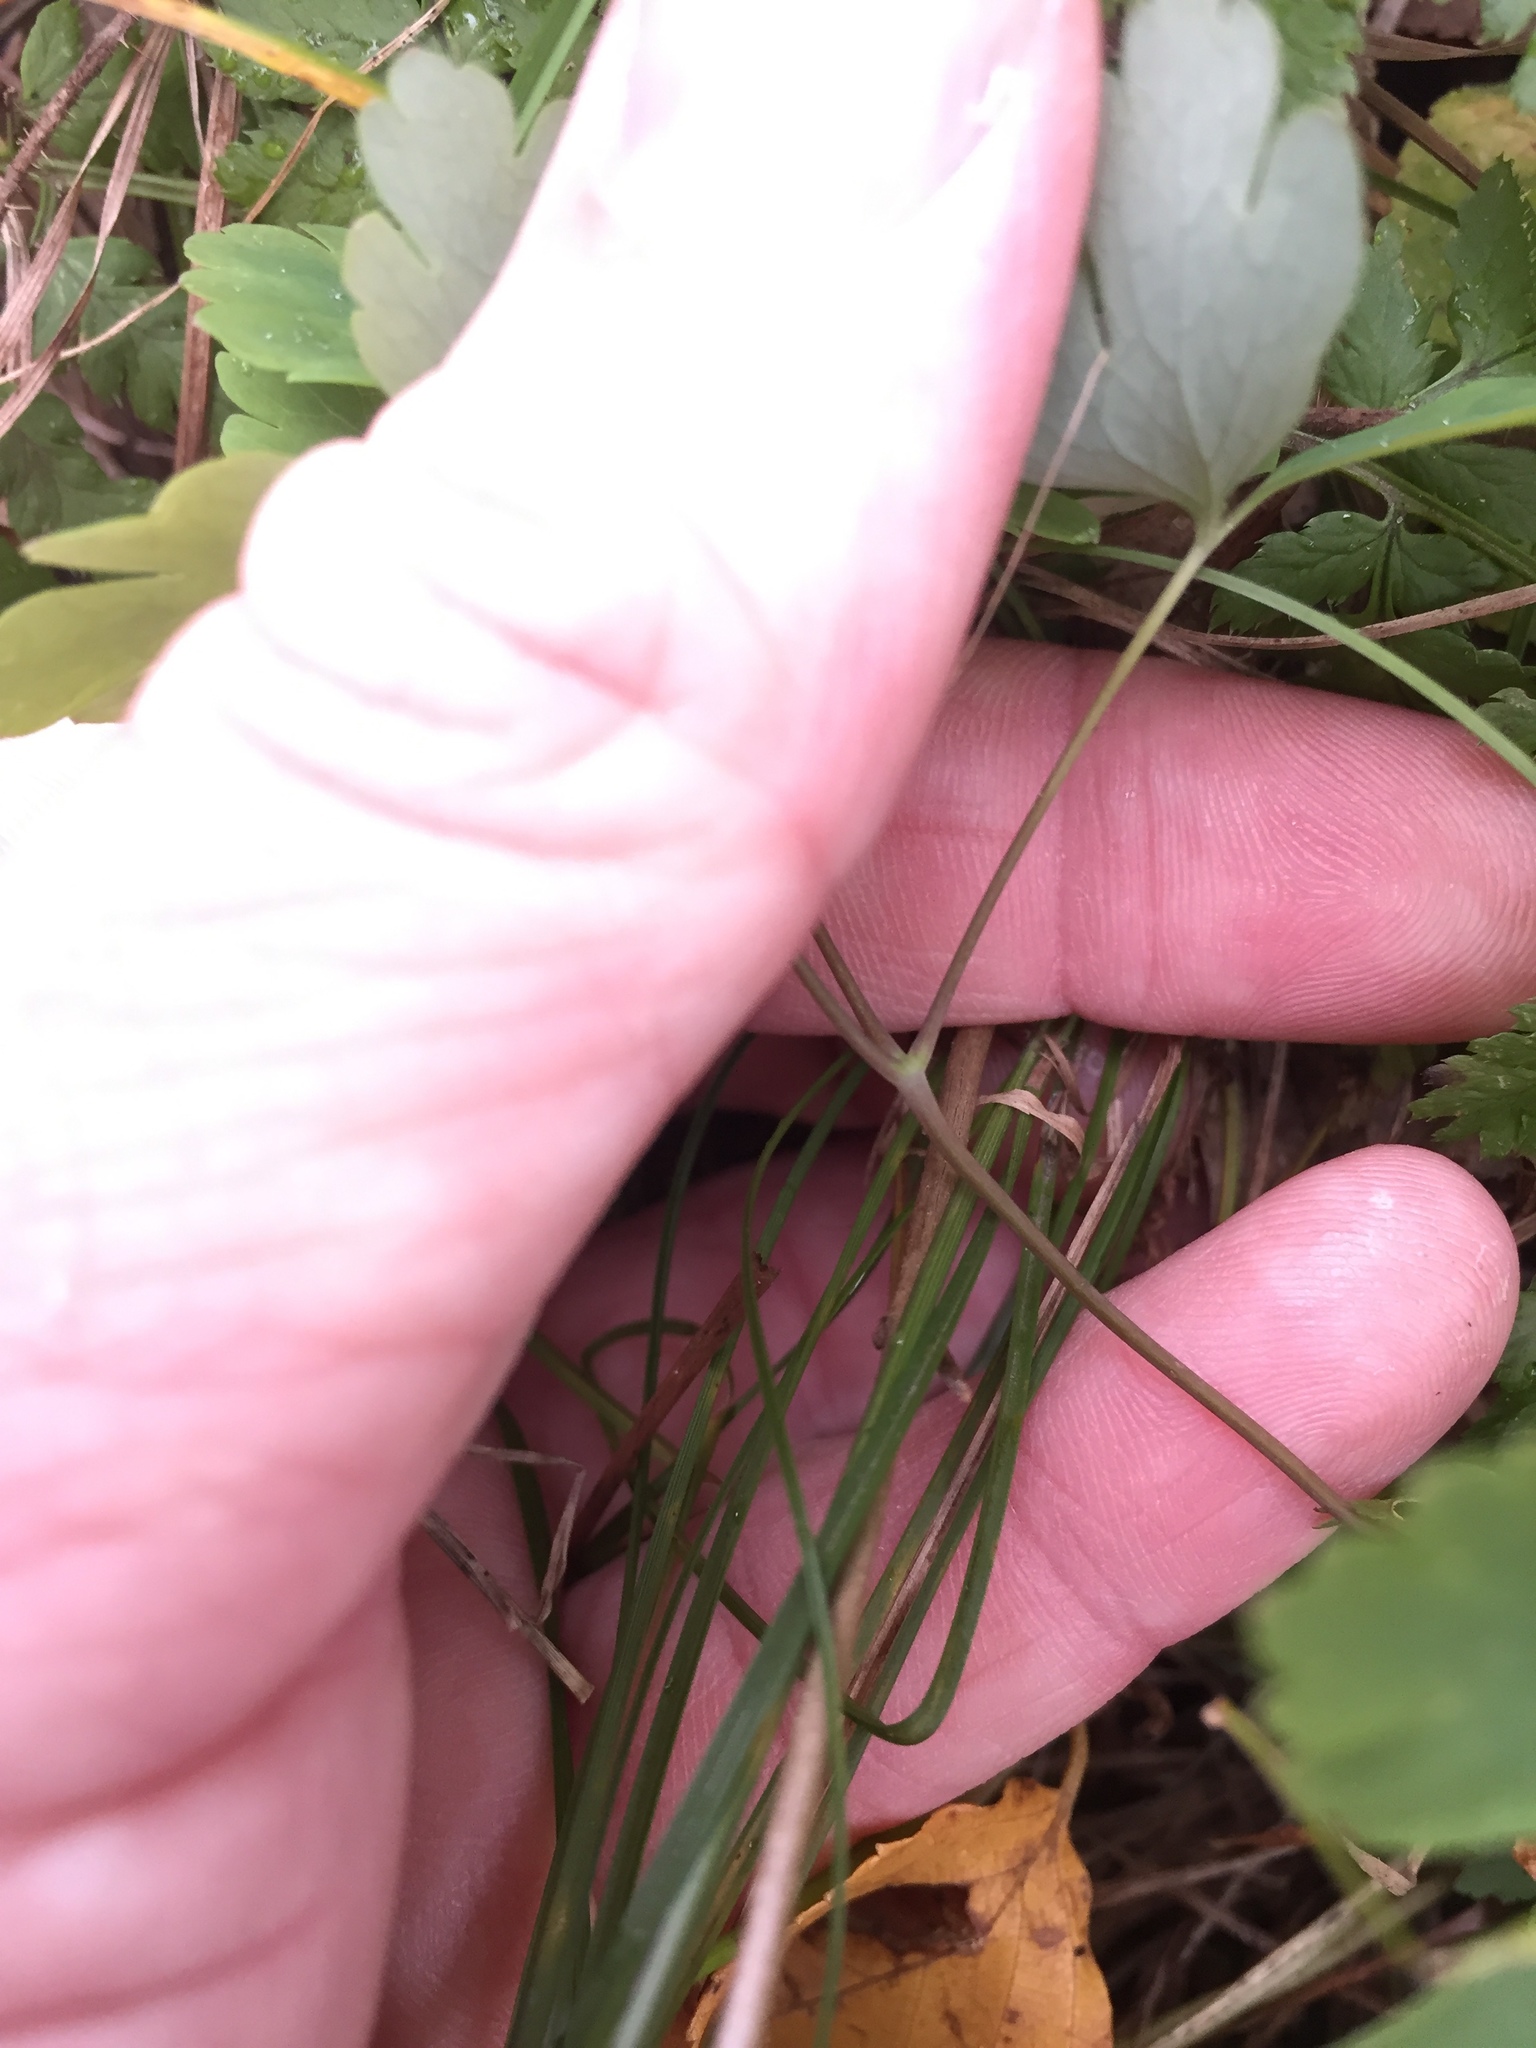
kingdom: Plantae
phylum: Tracheophyta
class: Magnoliopsida
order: Ranunculales
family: Ranunculaceae
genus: Aquilegia
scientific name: Aquilegia canadensis
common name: American columbine
